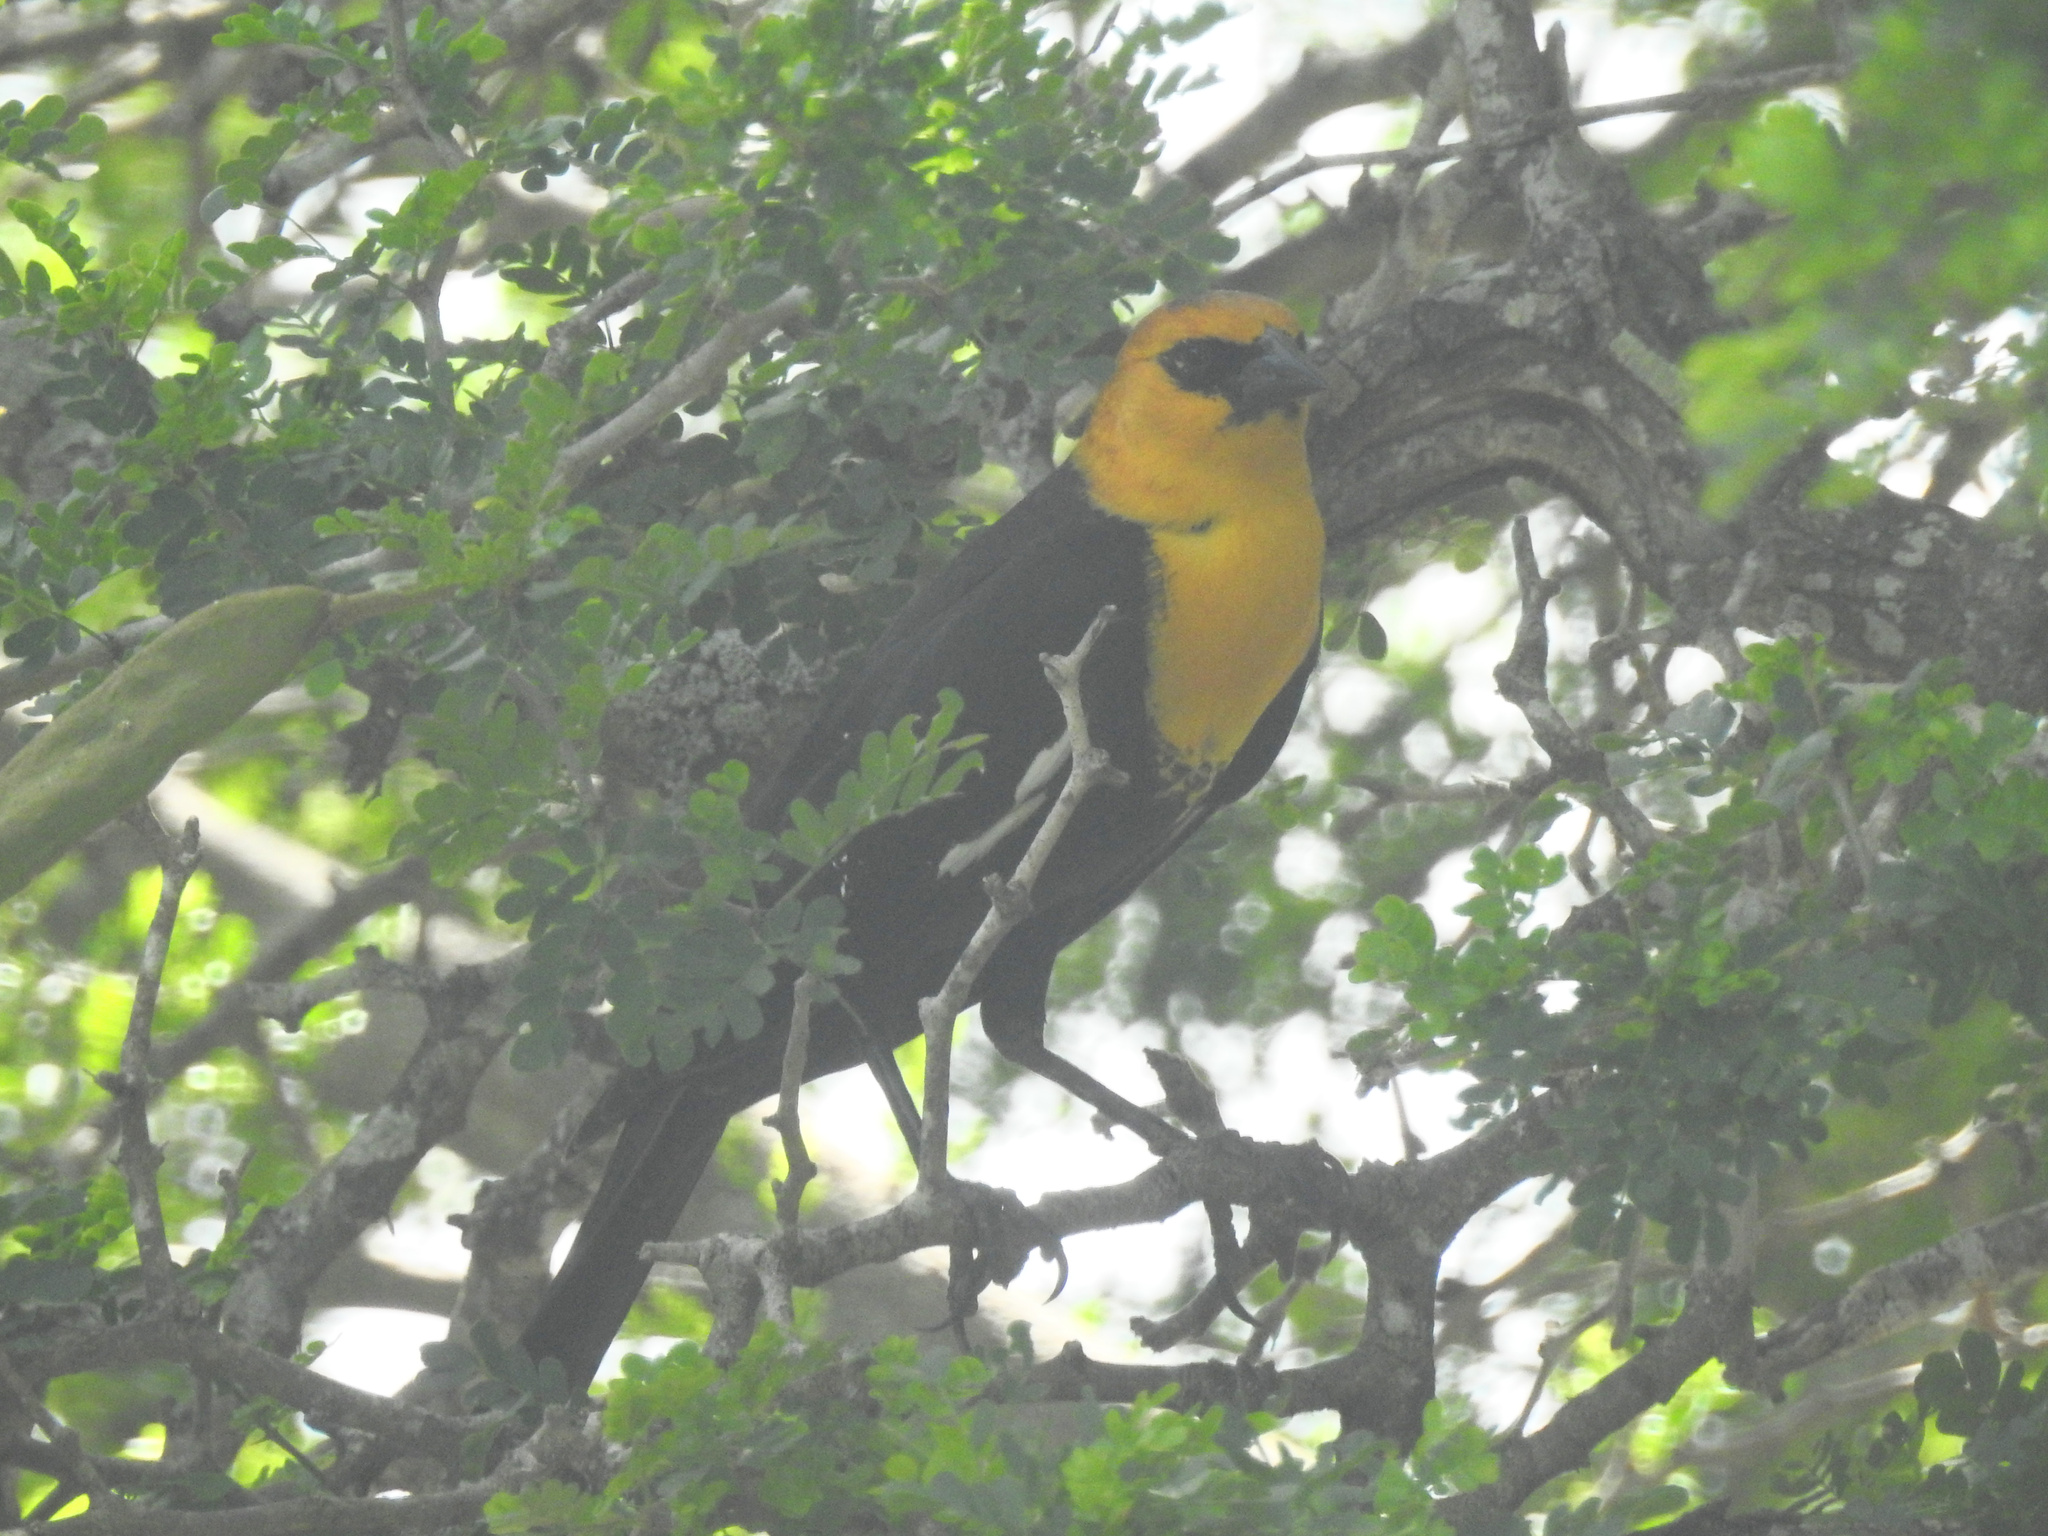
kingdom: Animalia
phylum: Chordata
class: Aves
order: Passeriformes
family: Icteridae
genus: Xanthocephalus
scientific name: Xanthocephalus xanthocephalus
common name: Yellow-headed blackbird
